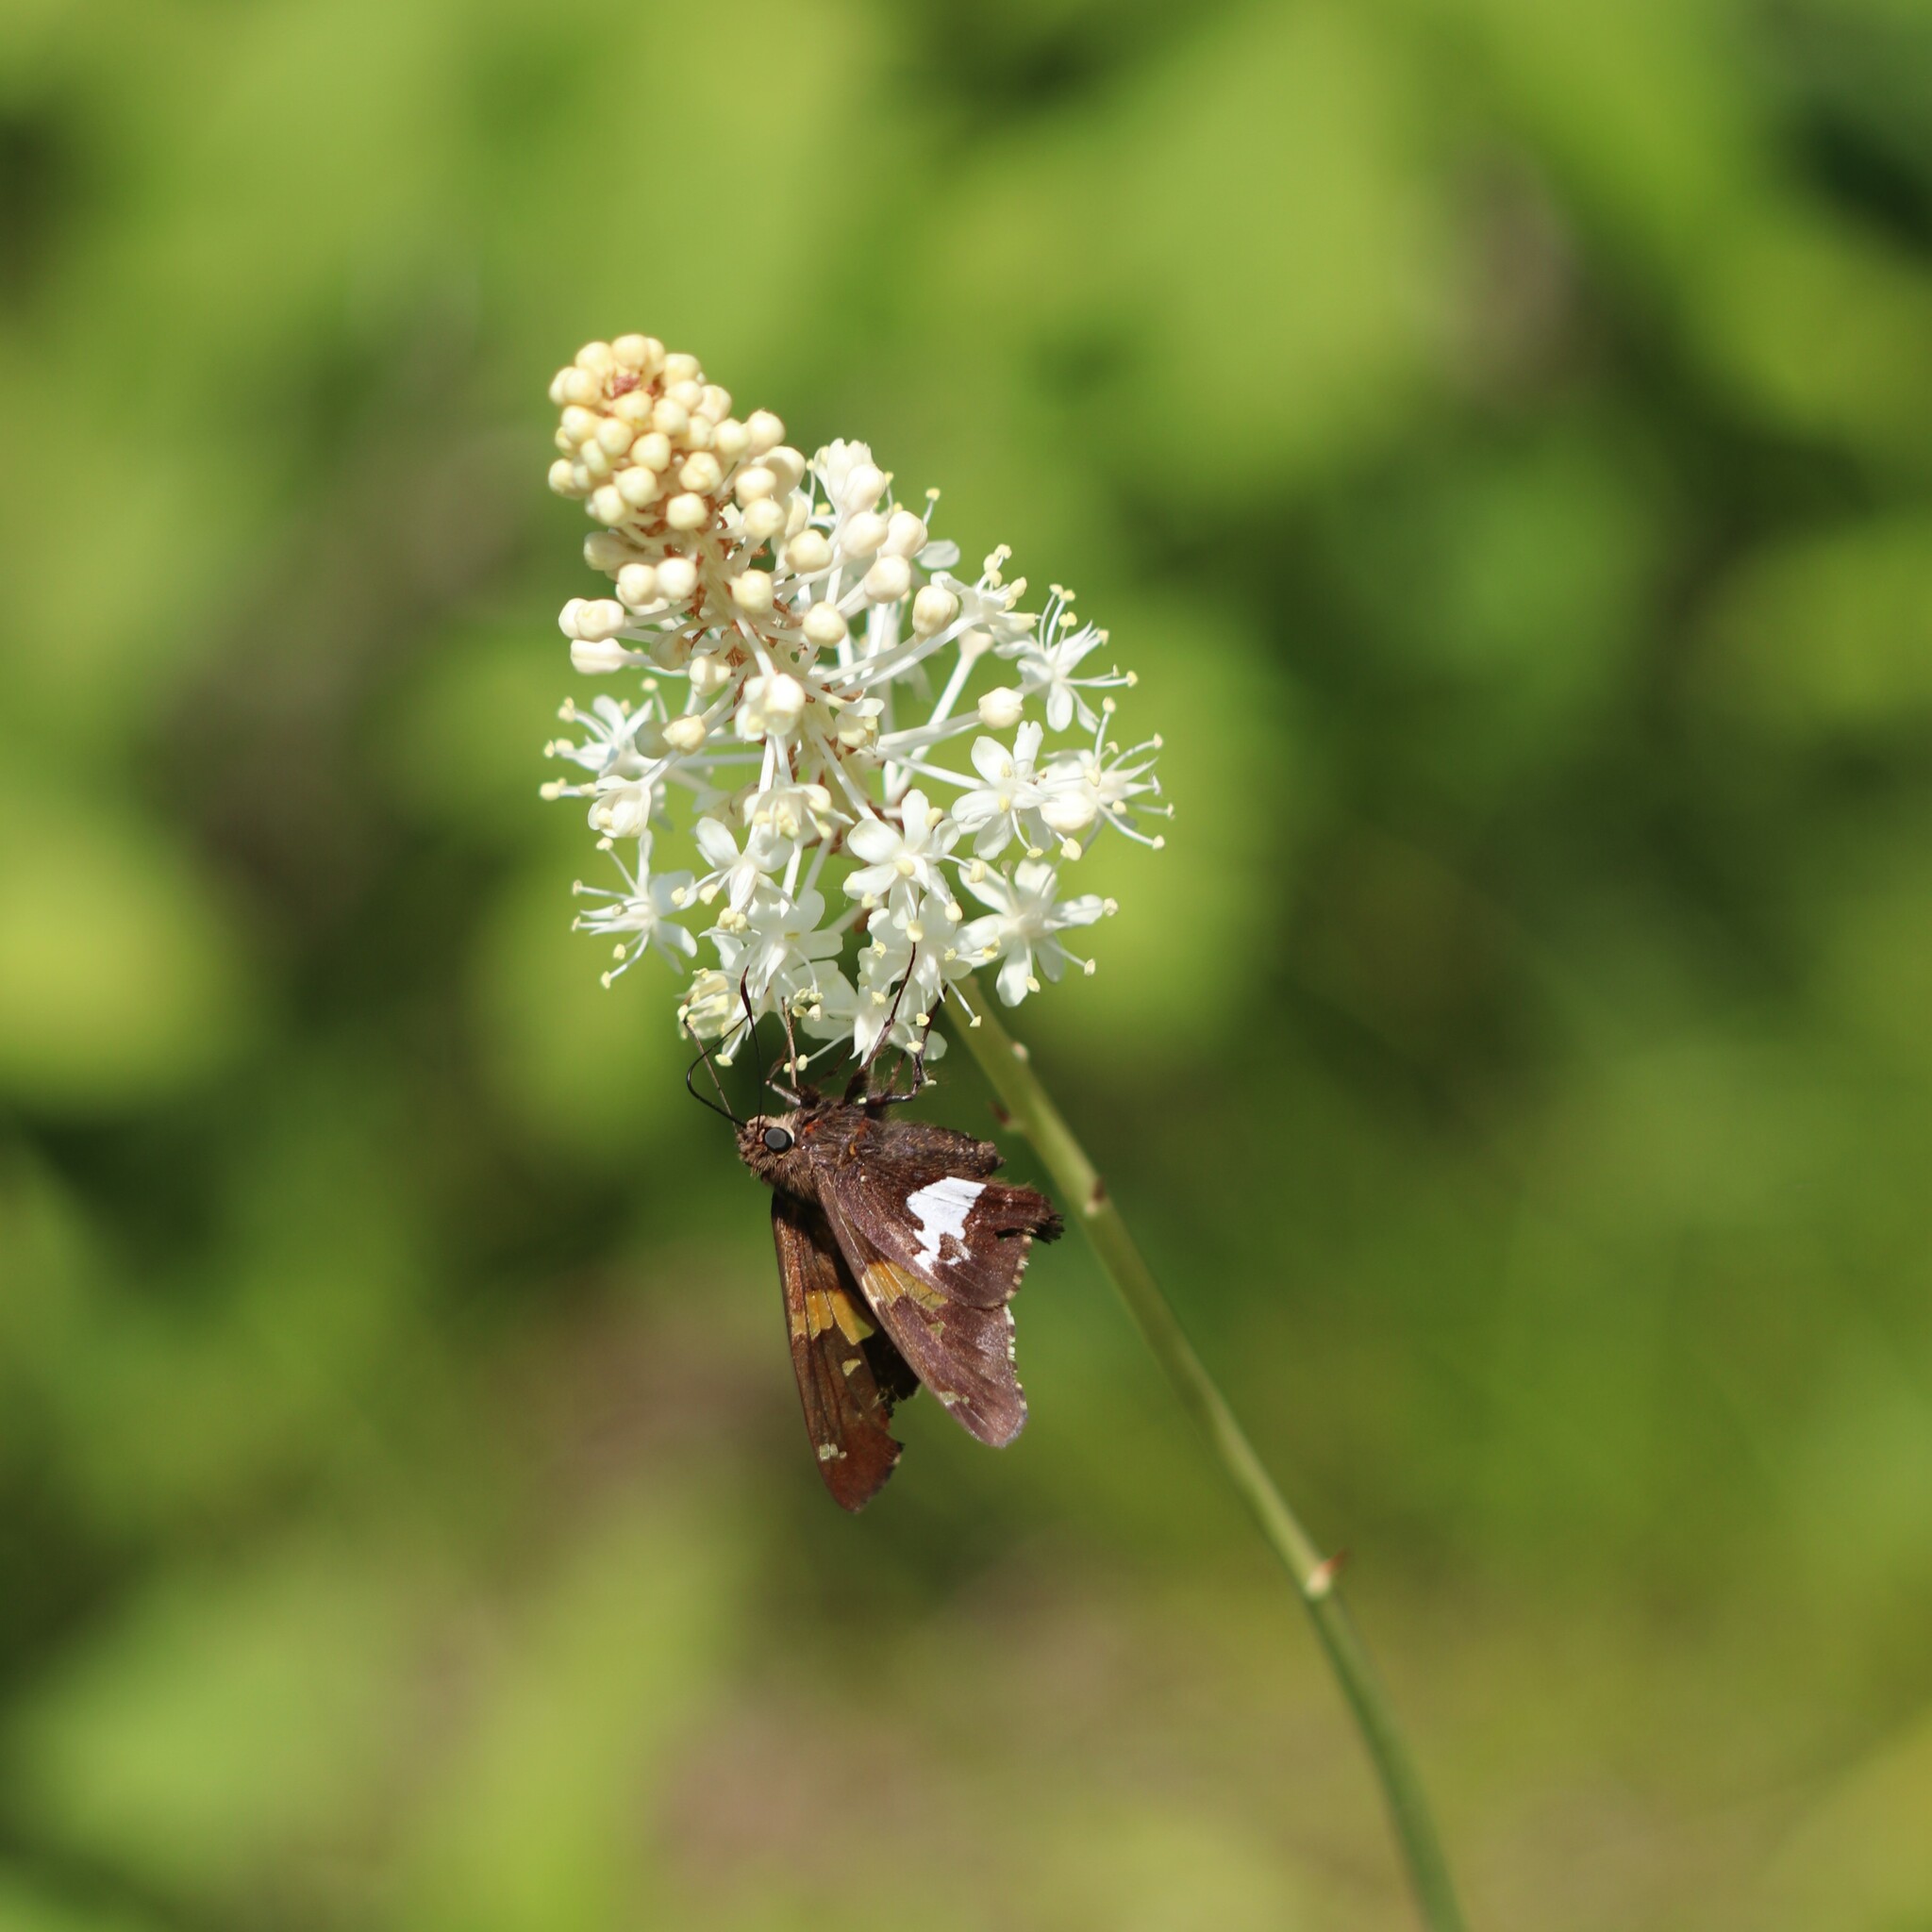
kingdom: Plantae
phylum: Tracheophyta
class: Liliopsida
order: Liliales
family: Melanthiaceae
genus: Amianthium
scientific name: Amianthium muscitoxicum
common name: Fly-poison
